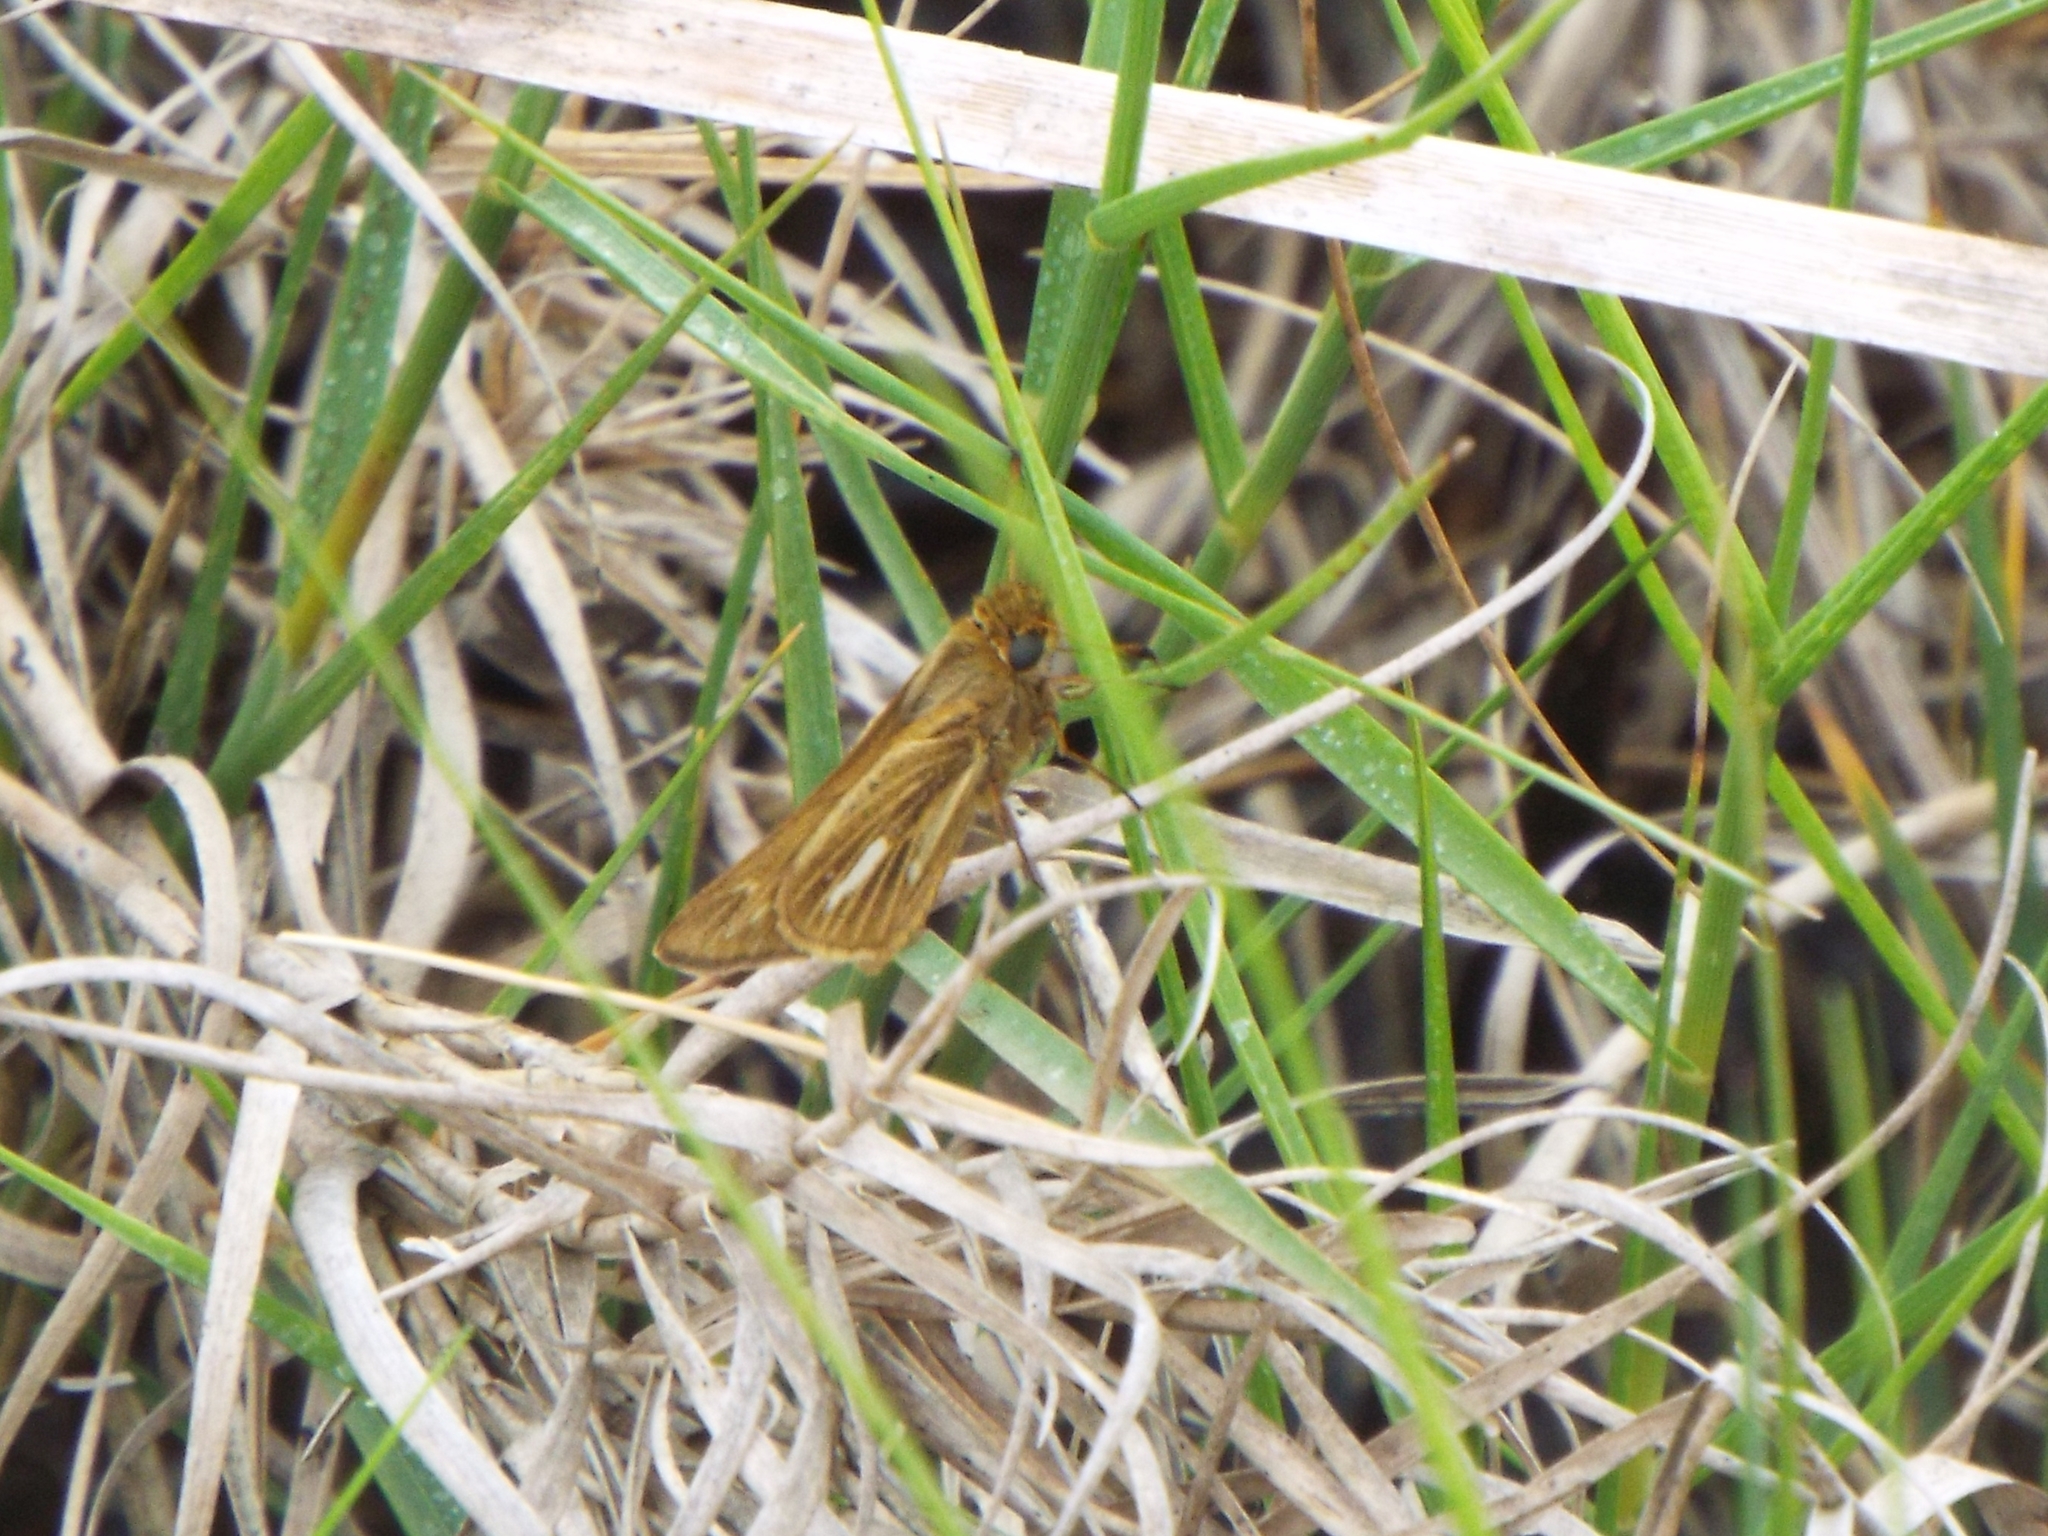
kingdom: Animalia
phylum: Arthropoda
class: Insecta
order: Lepidoptera
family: Hesperiidae
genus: Panoquina
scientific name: Panoquina panoquin
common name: Salt marsh skipper
